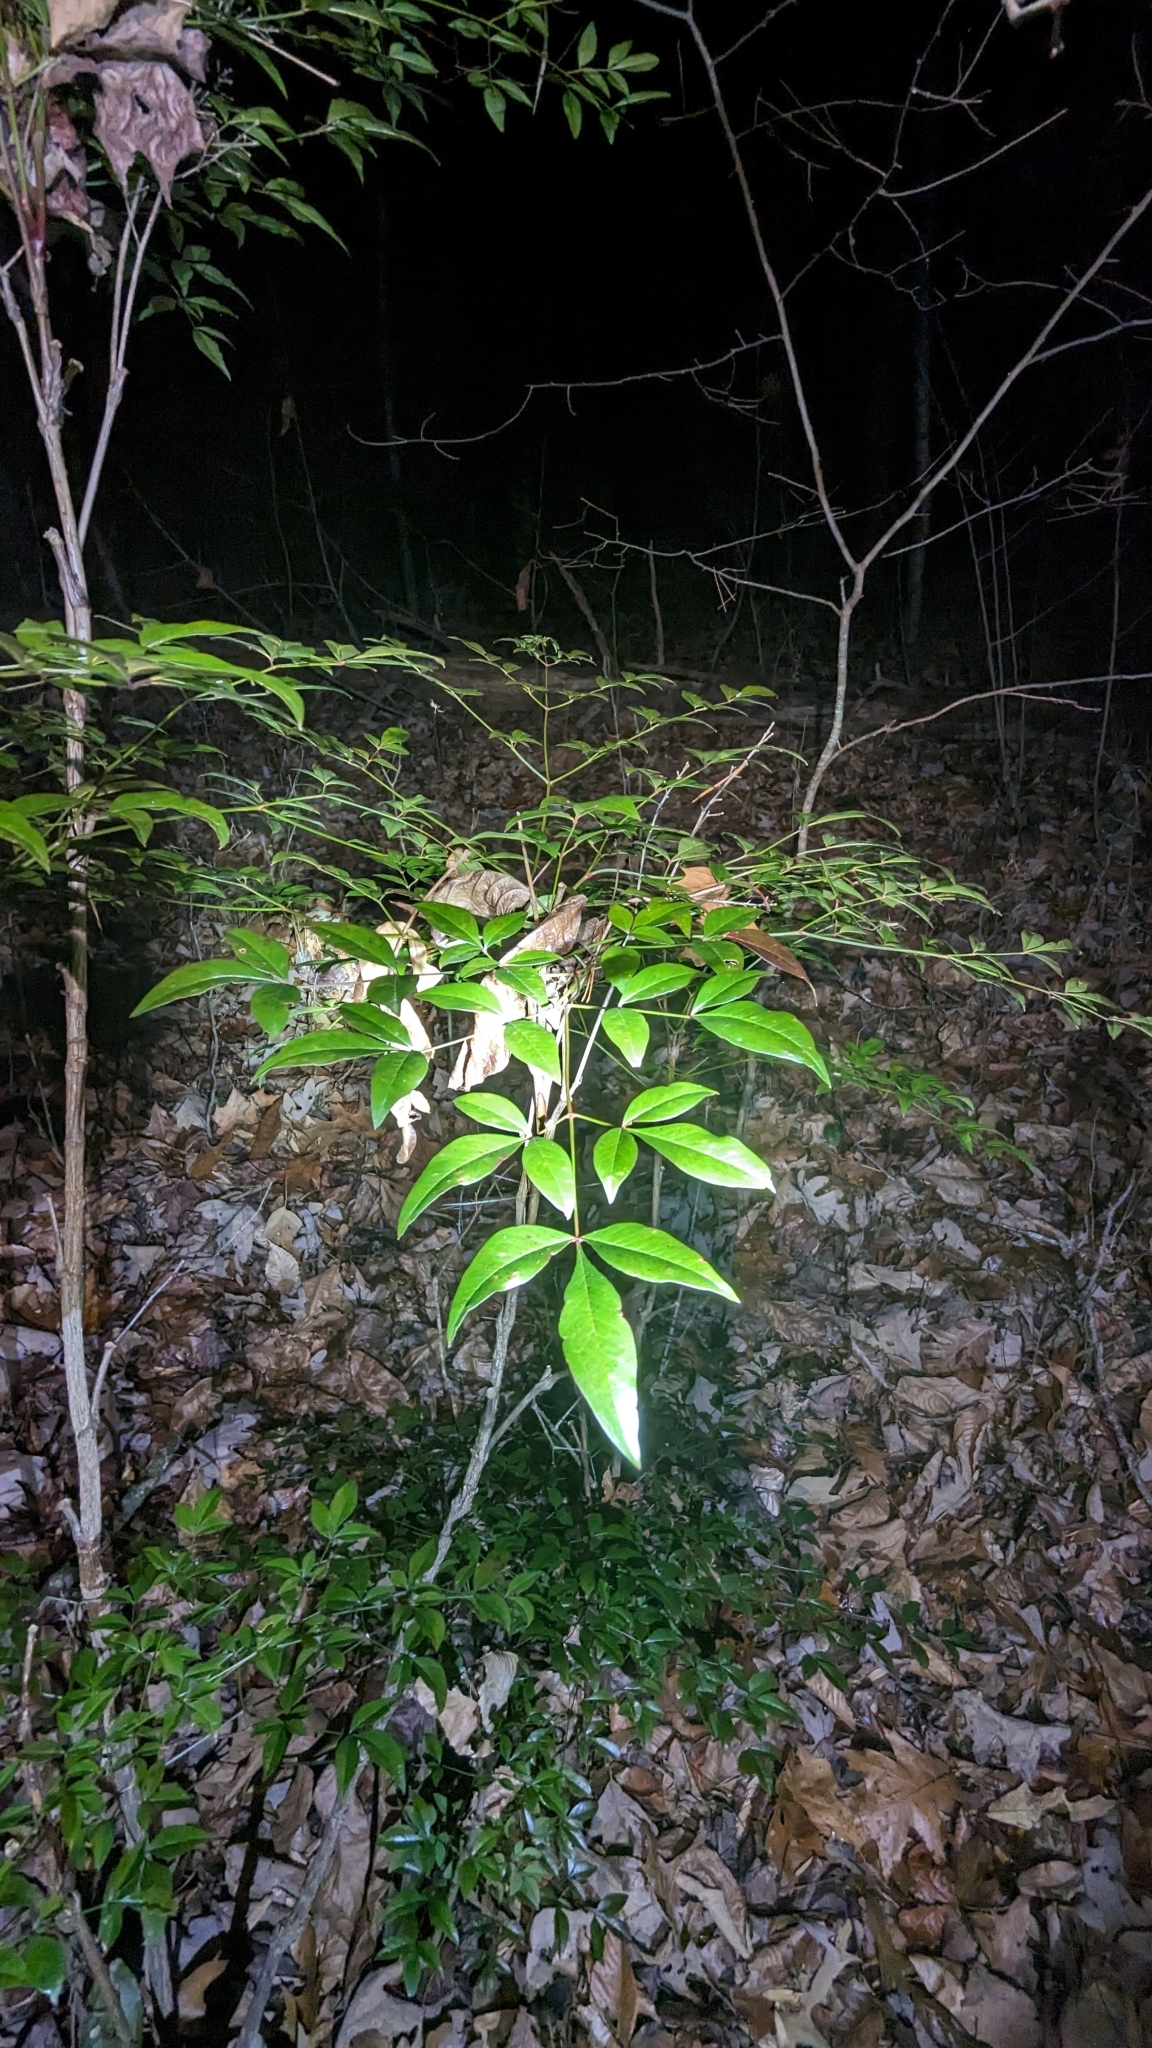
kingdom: Plantae
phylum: Tracheophyta
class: Magnoliopsida
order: Ranunculales
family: Berberidaceae
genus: Nandina
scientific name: Nandina domestica
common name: Sacred bamboo
